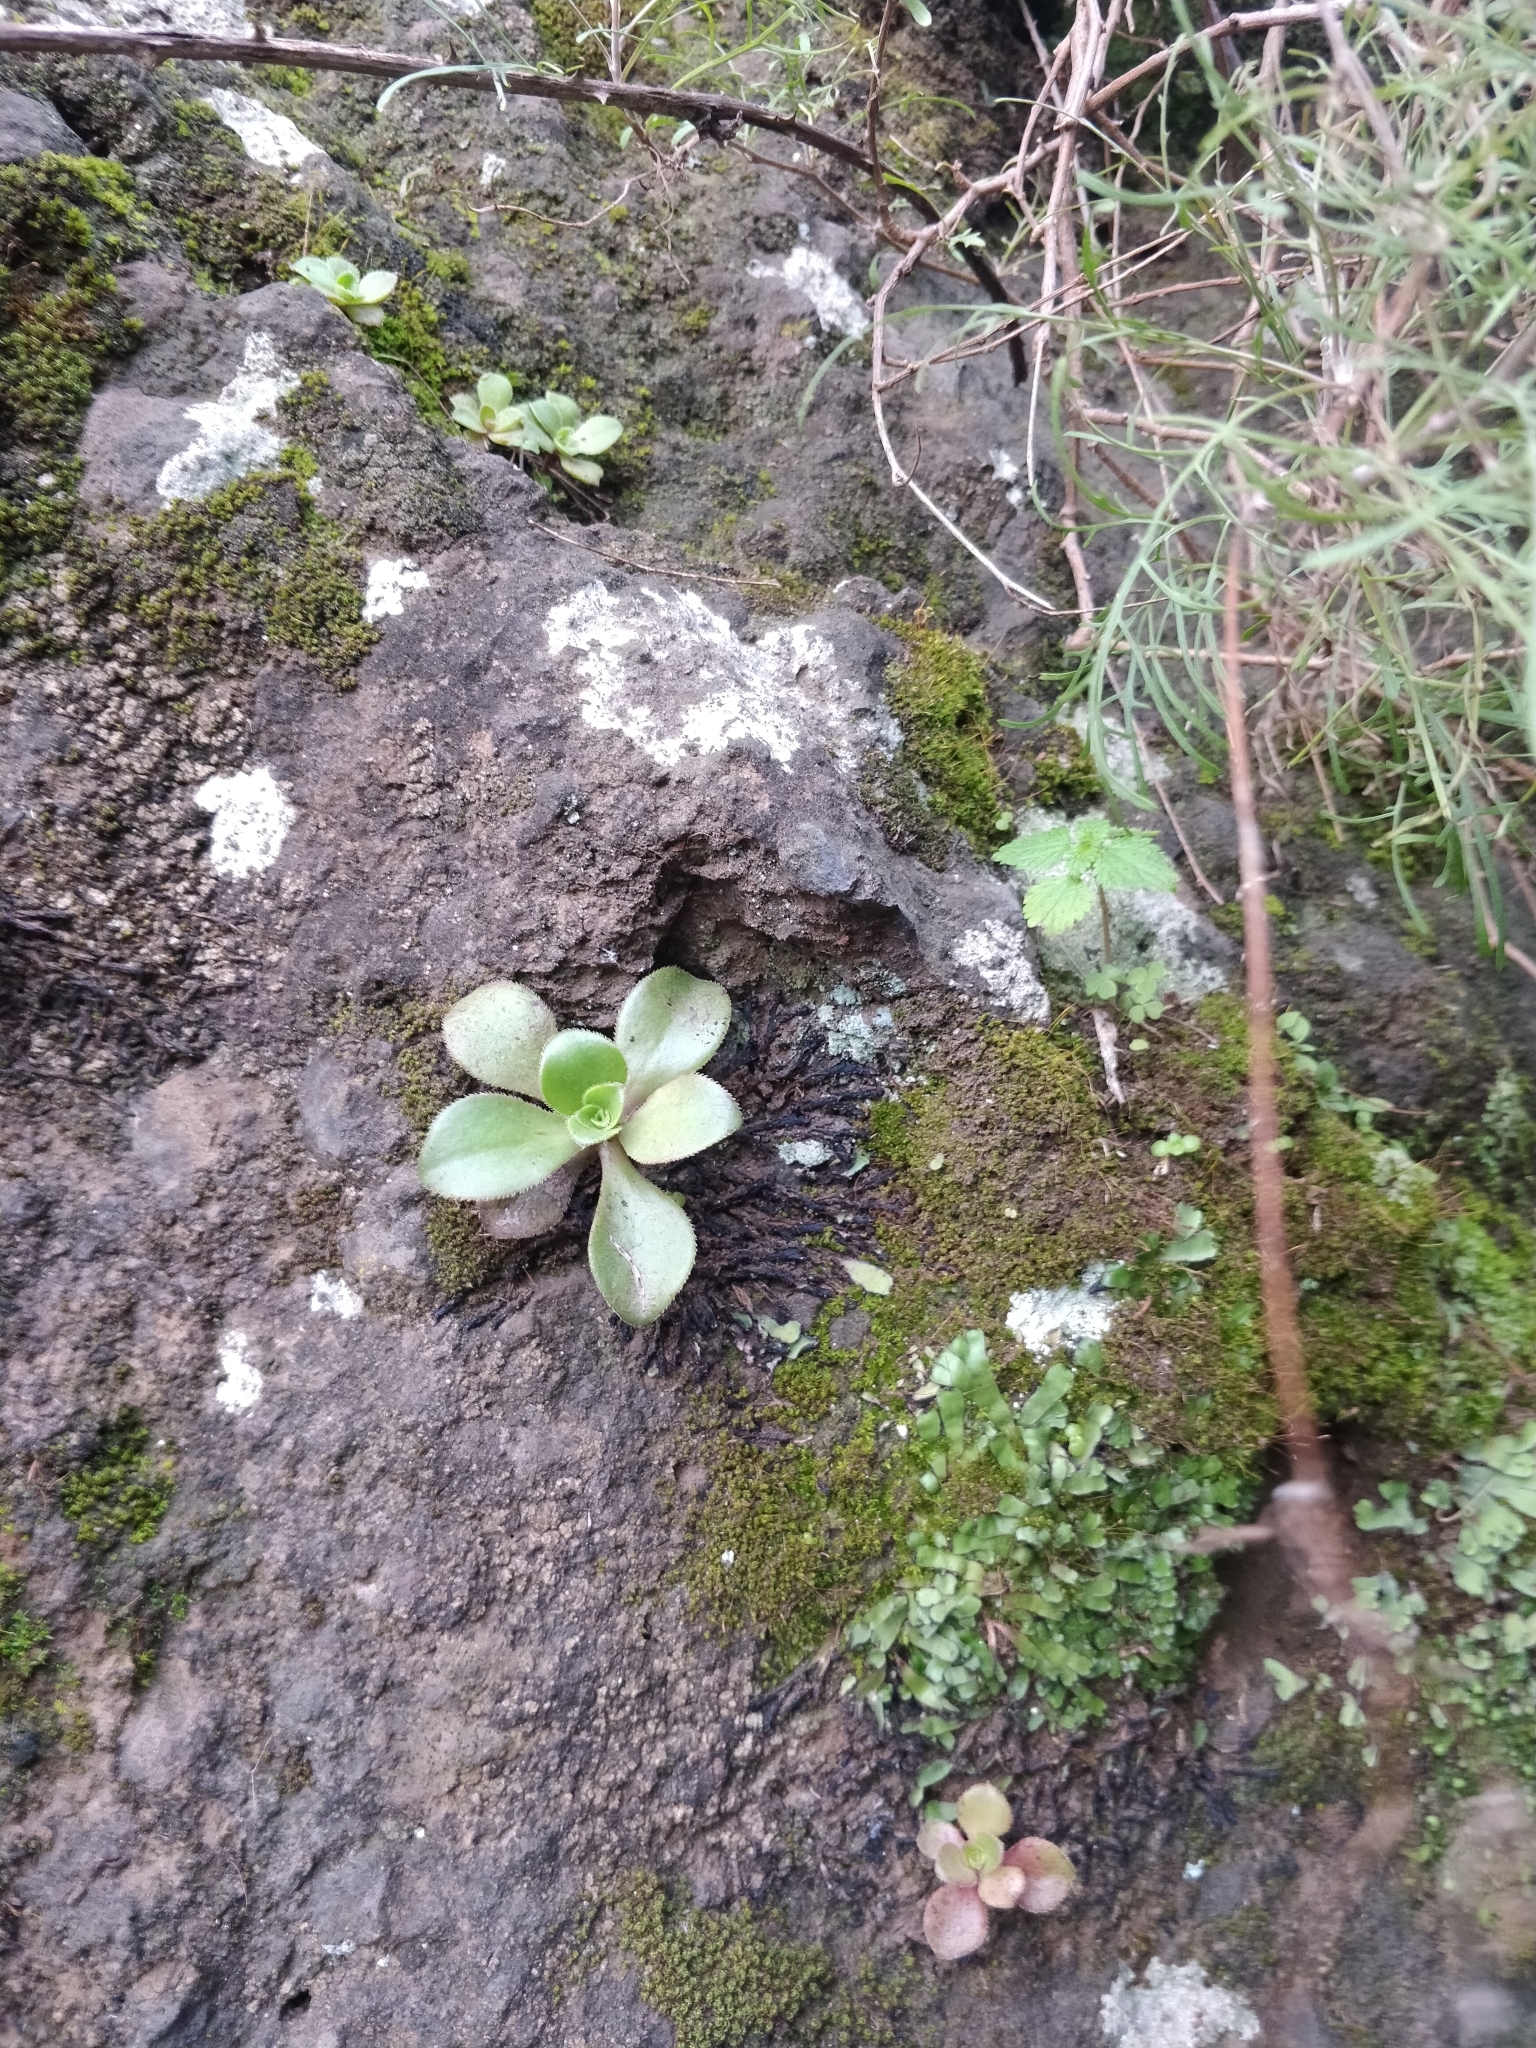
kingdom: Plantae
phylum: Tracheophyta
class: Magnoliopsida
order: Saxifragales
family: Crassulaceae
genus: Aeonium
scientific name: Aeonium glutinosum
